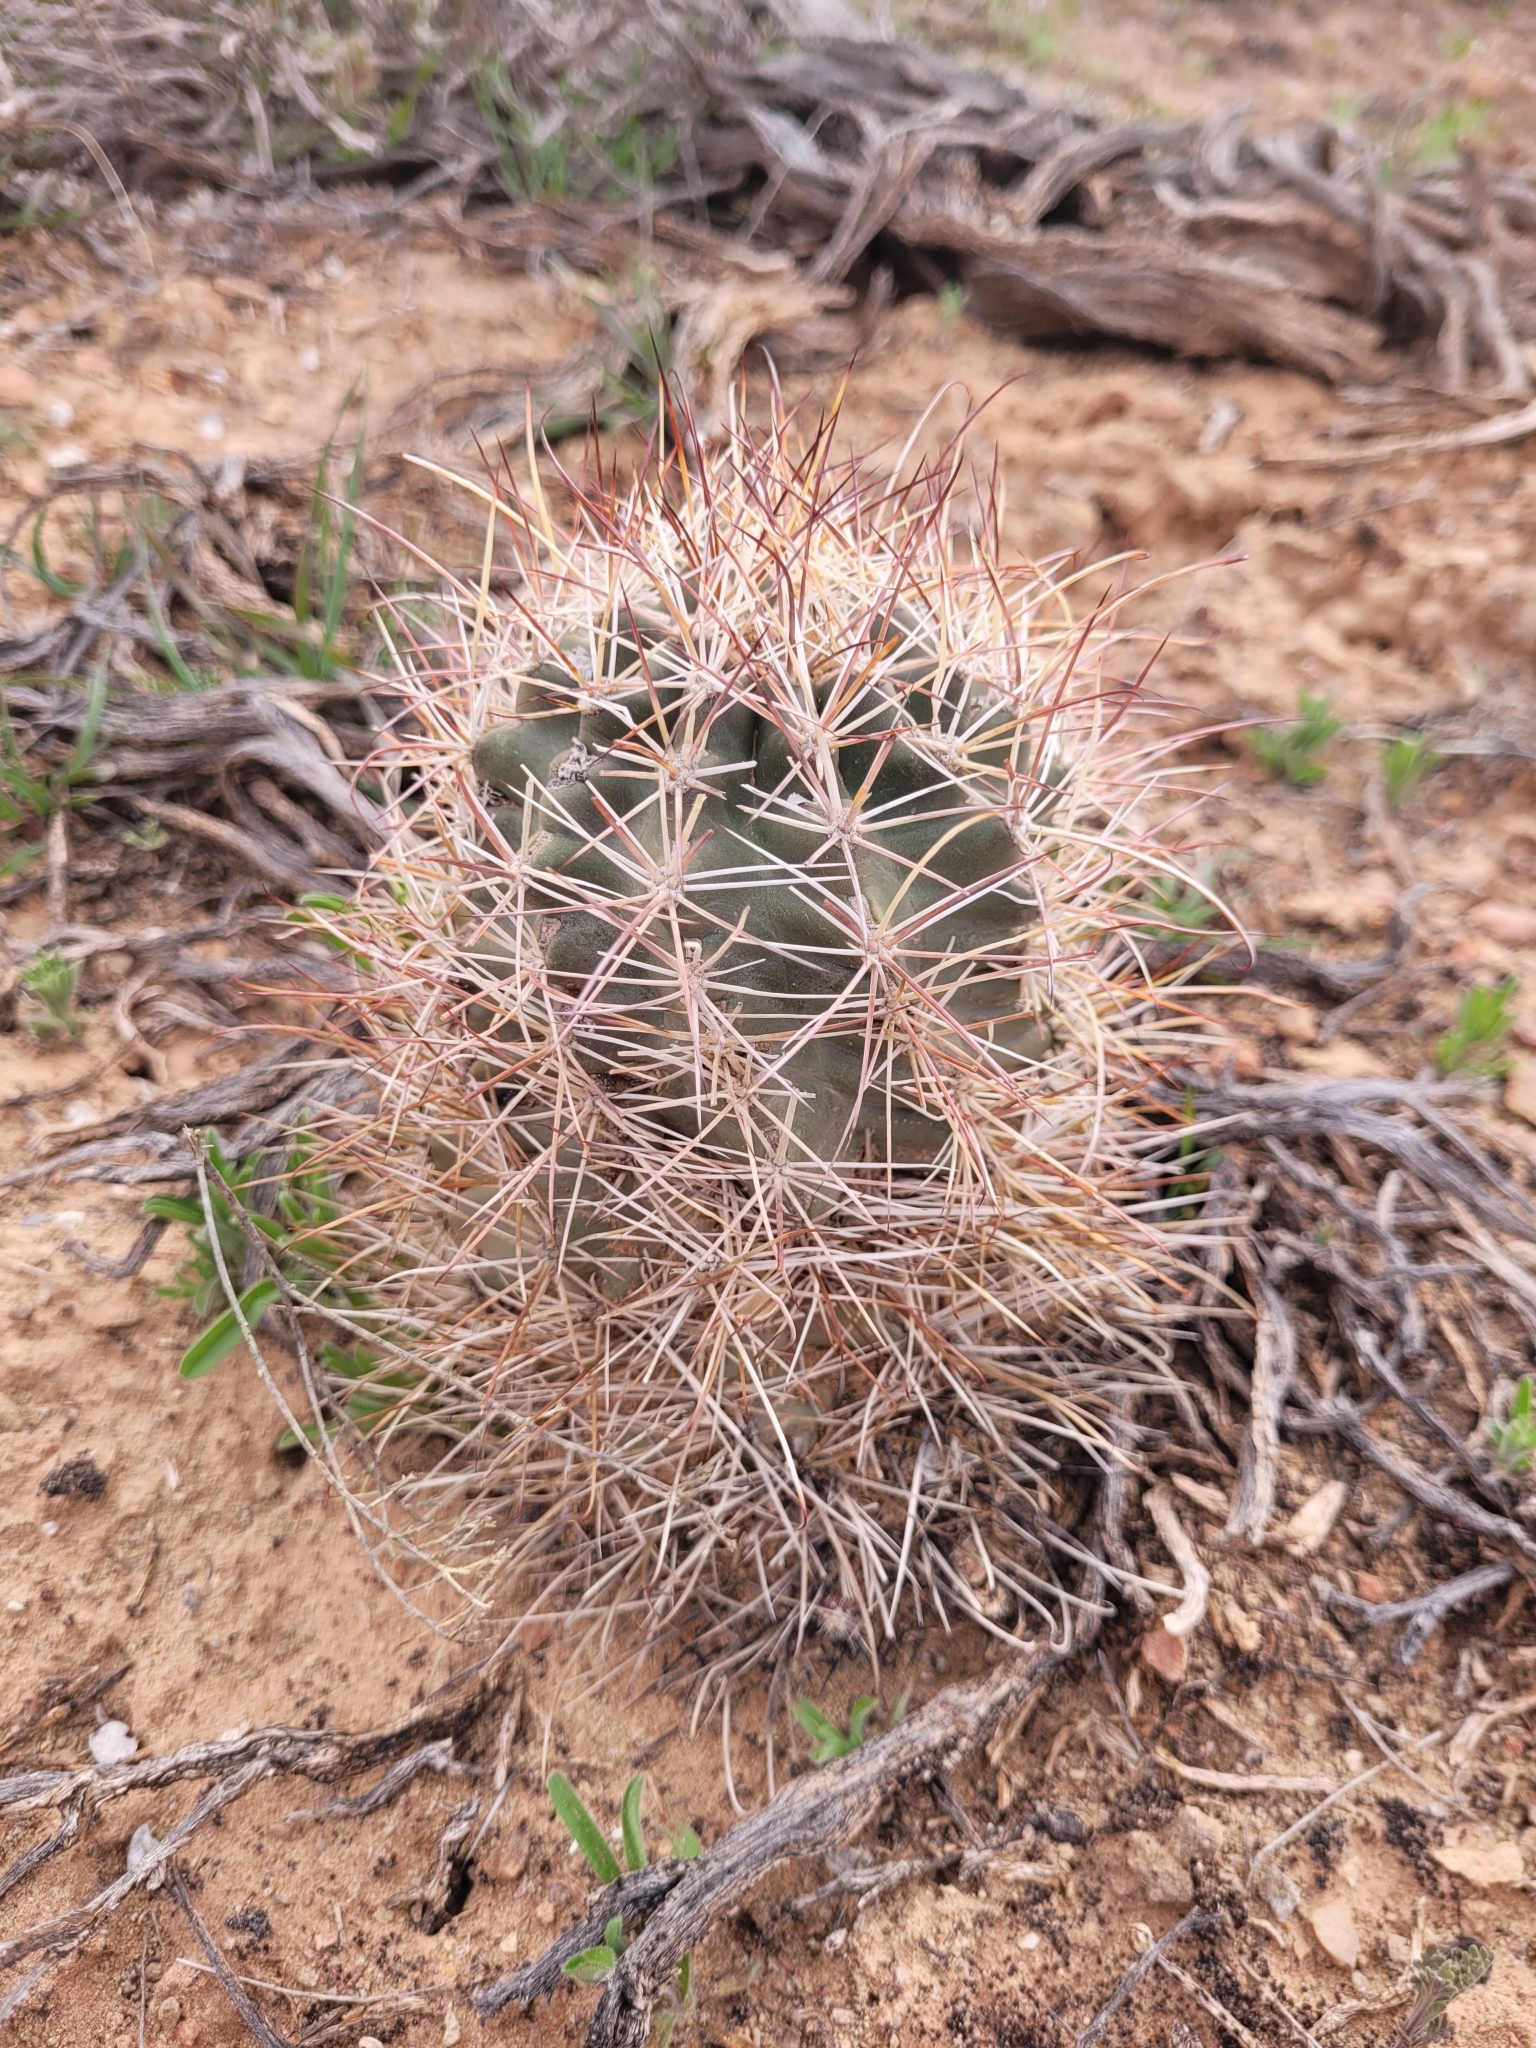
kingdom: Plantae
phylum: Tracheophyta
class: Magnoliopsida
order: Caryophyllales
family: Cactaceae
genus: Sclerocactus
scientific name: Sclerocactus parviflorus
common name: Small-flower fishhook cactus
